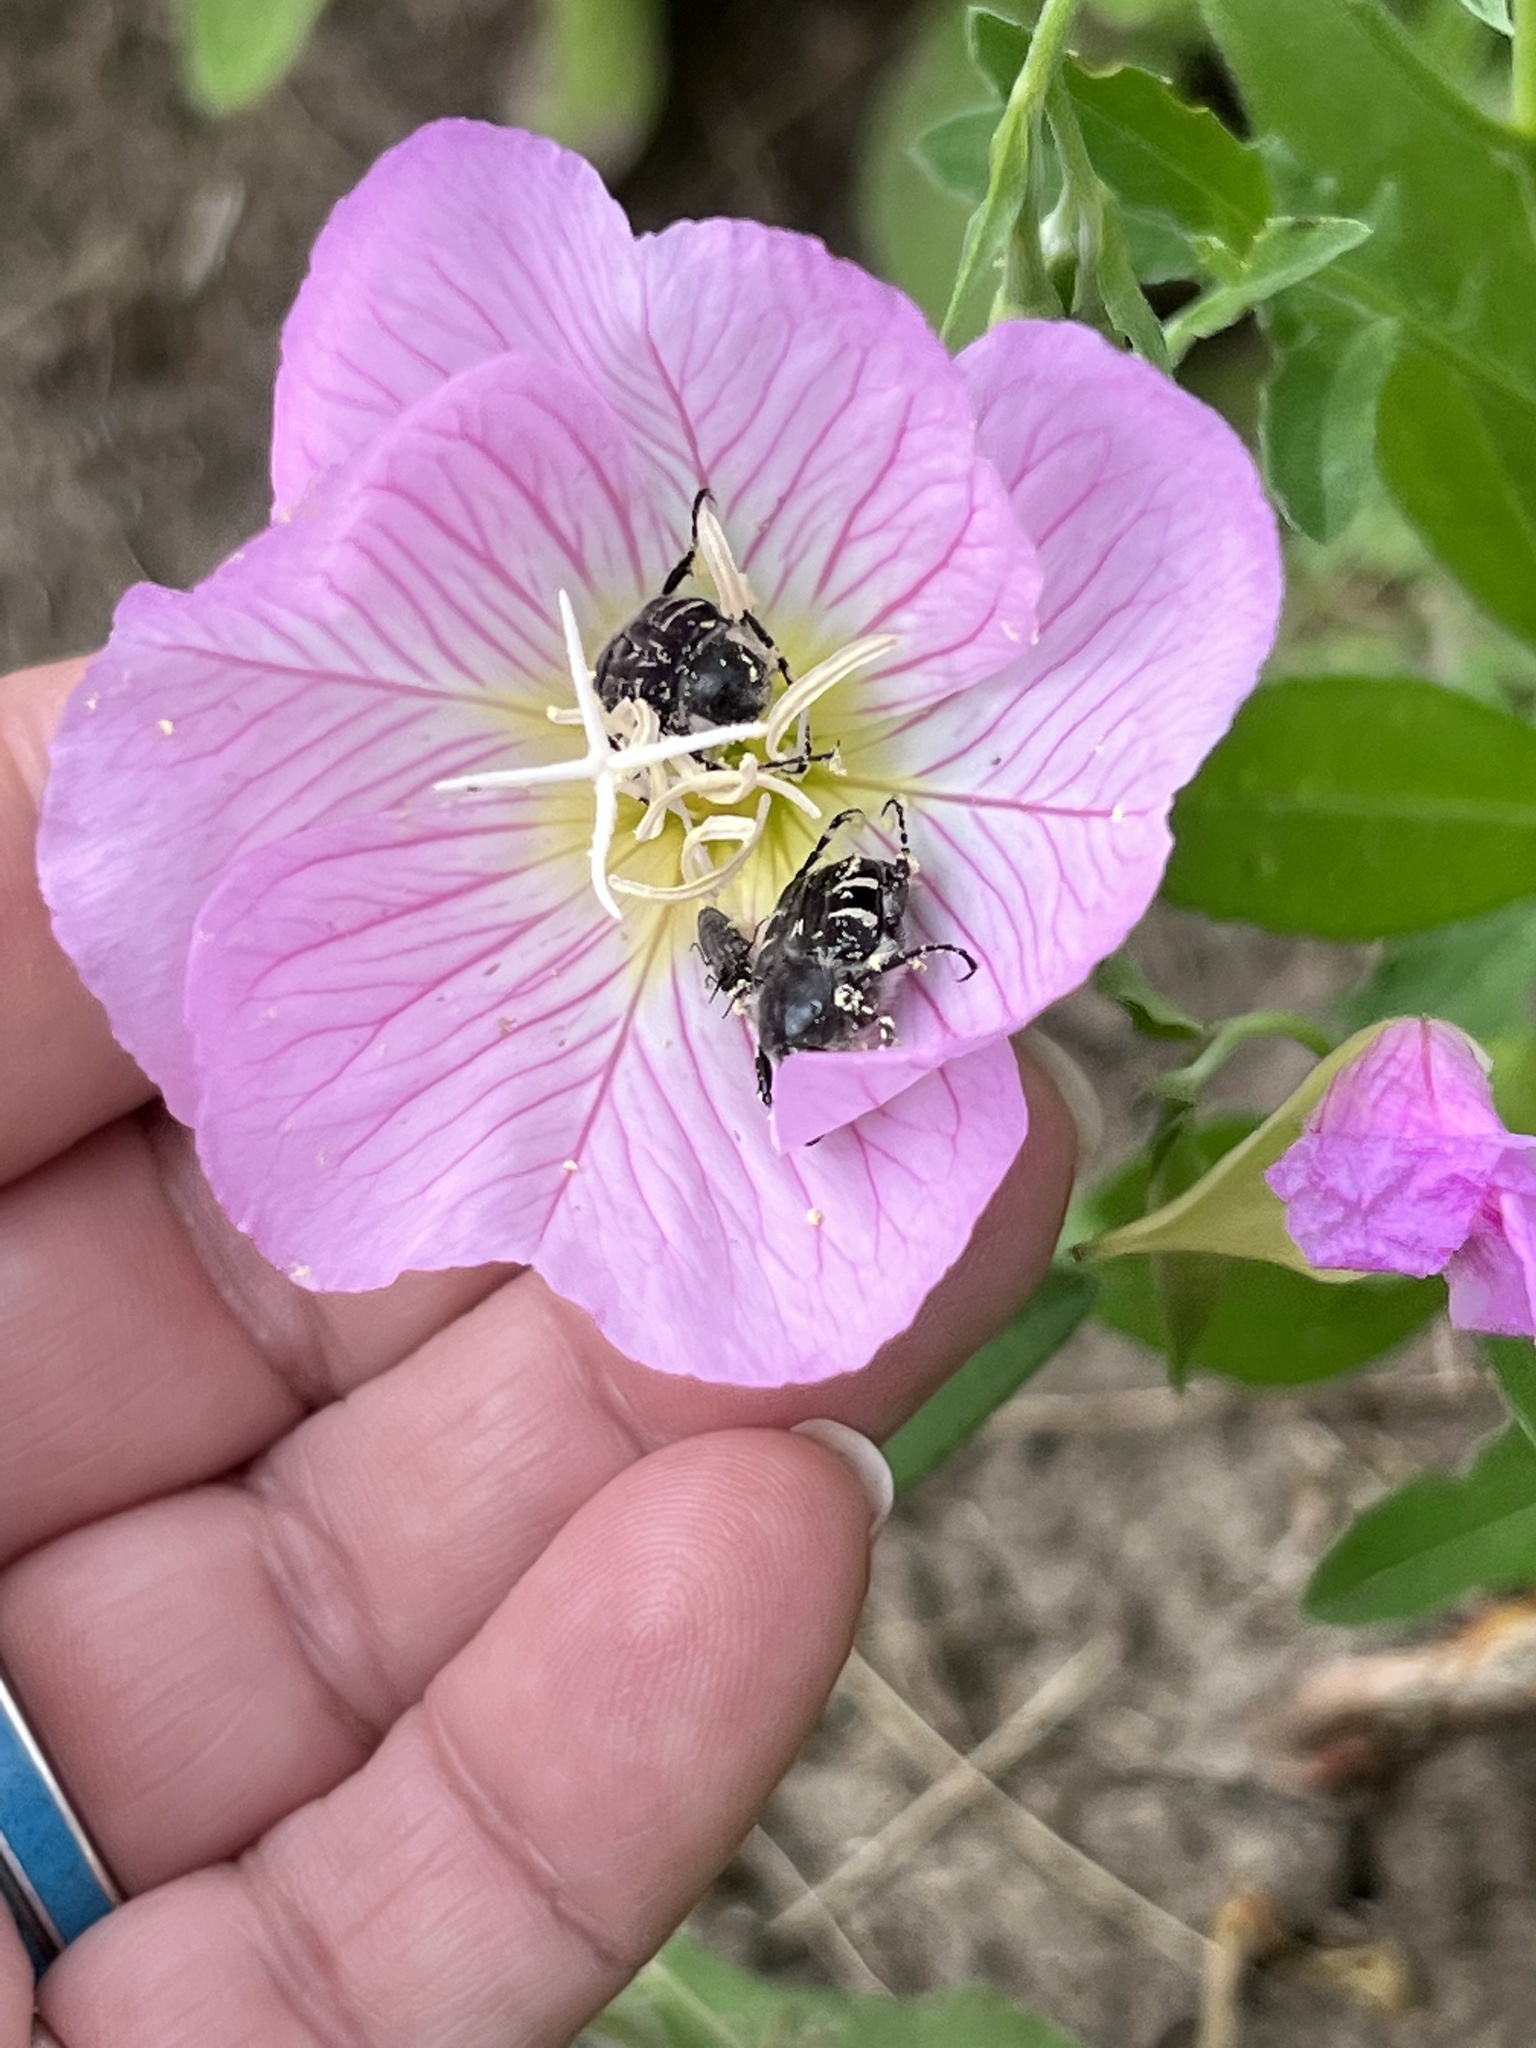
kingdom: Animalia
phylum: Arthropoda
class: Insecta
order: Coleoptera
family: Scarabaeidae
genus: Trichiotinus
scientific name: Trichiotinus texanus
